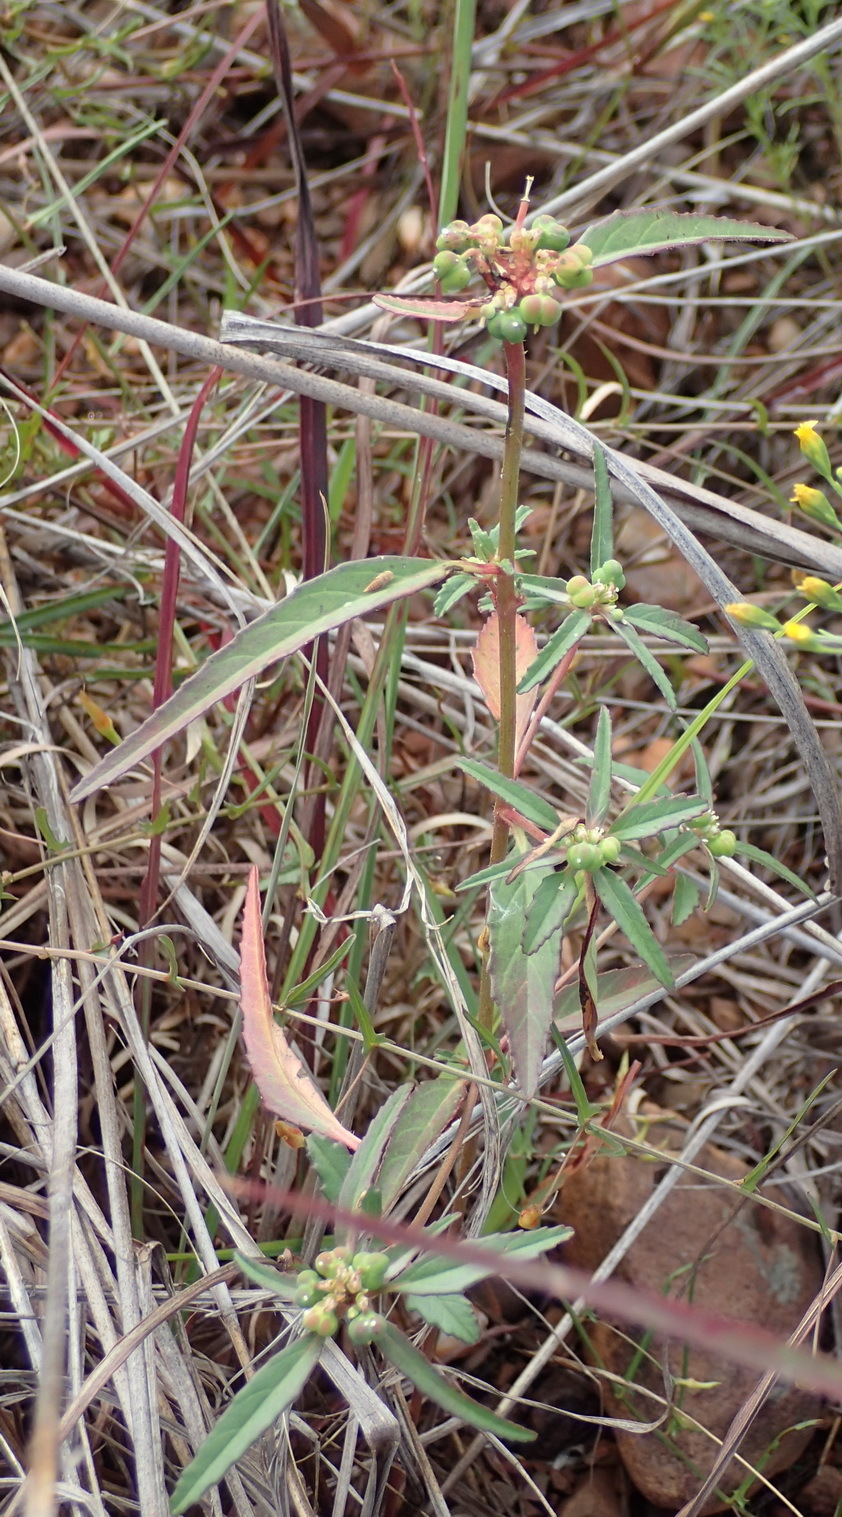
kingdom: Plantae
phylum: Tracheophyta
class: Magnoliopsida
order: Malpighiales
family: Euphorbiaceae
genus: Euphorbia
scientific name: Euphorbia dentata
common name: Dentate spurge
